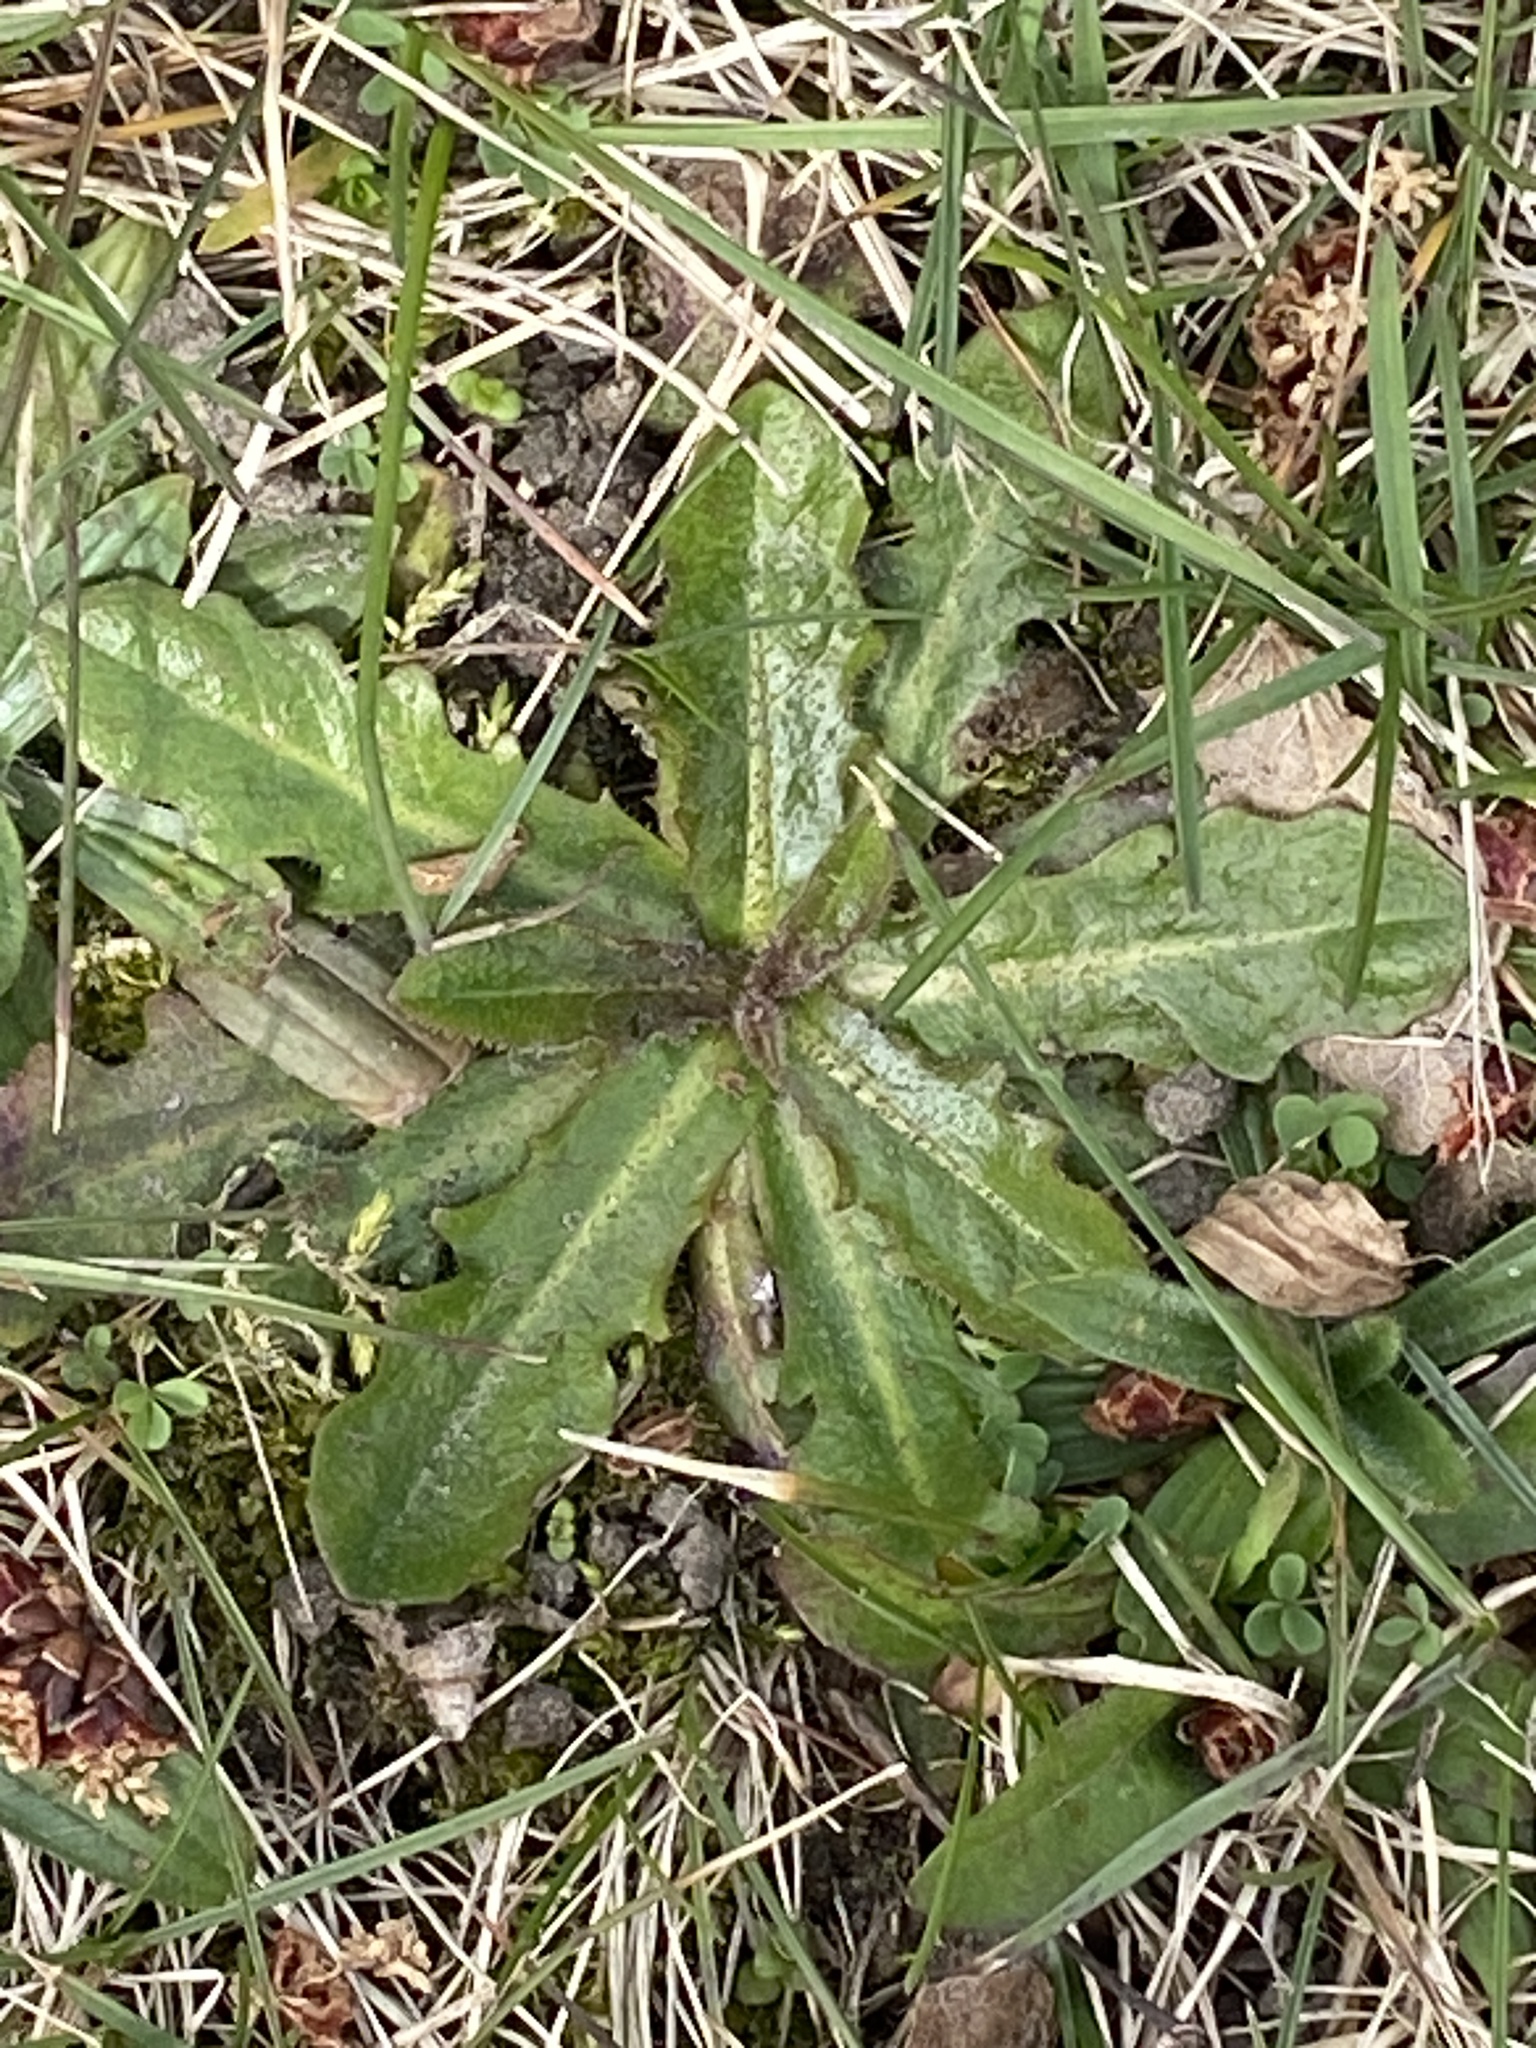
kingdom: Plantae
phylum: Tracheophyta
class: Magnoliopsida
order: Asterales
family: Asteraceae
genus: Hypochaeris
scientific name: Hypochaeris radicata
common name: Flatweed
